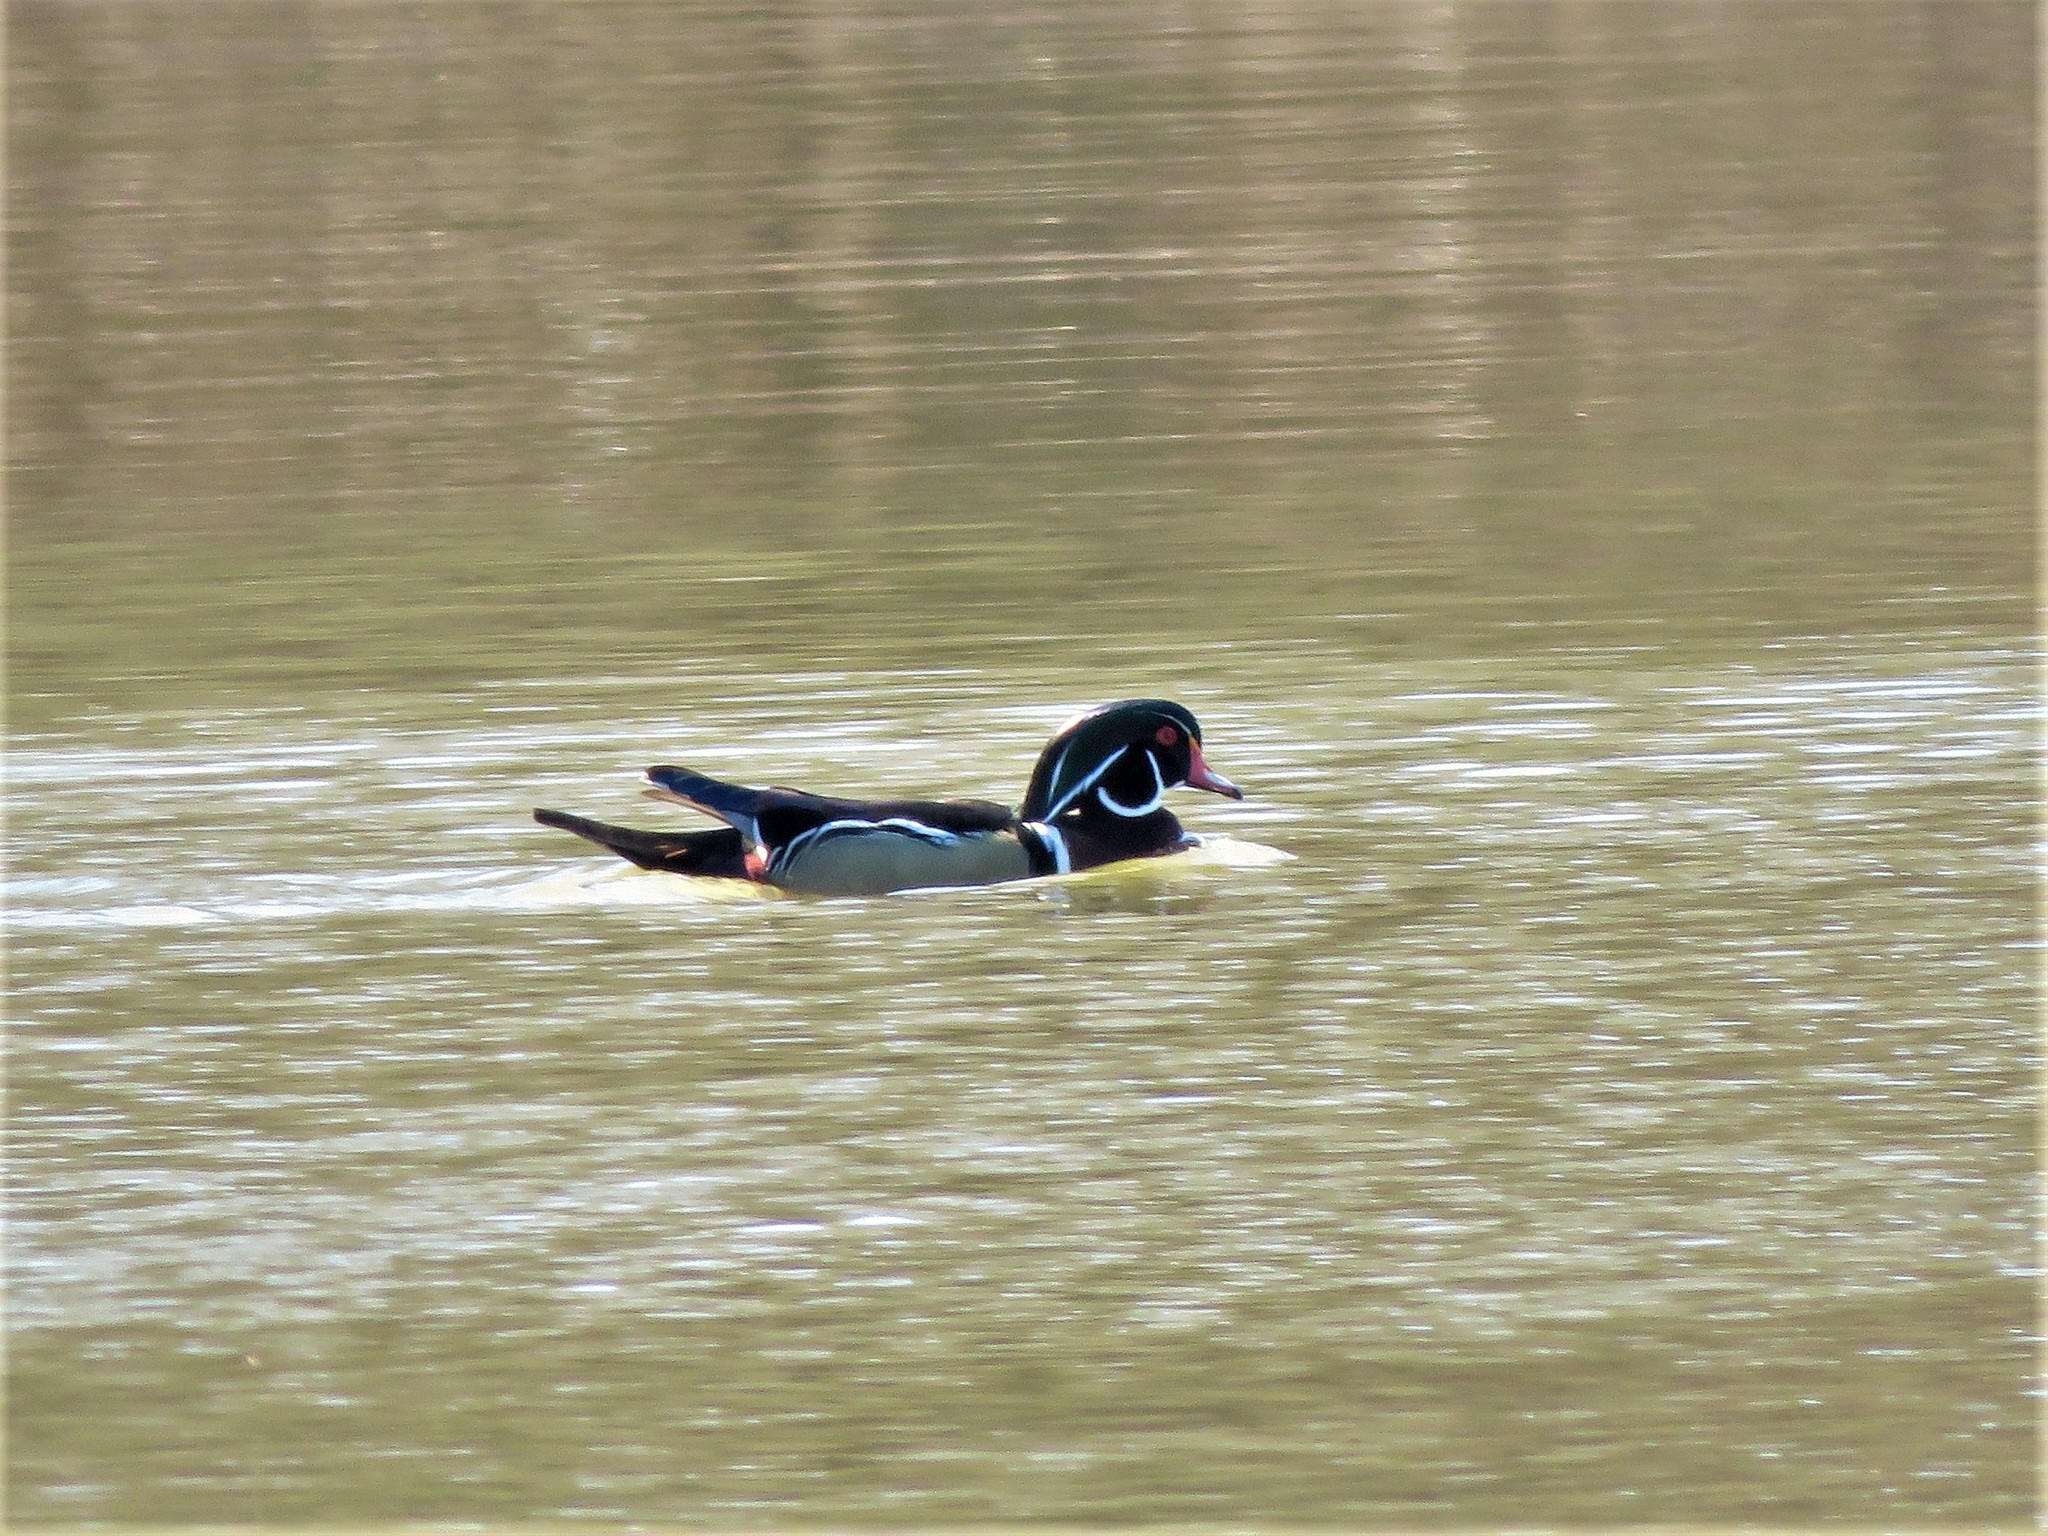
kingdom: Animalia
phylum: Chordata
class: Aves
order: Anseriformes
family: Anatidae
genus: Aix
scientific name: Aix sponsa
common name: Wood duck
